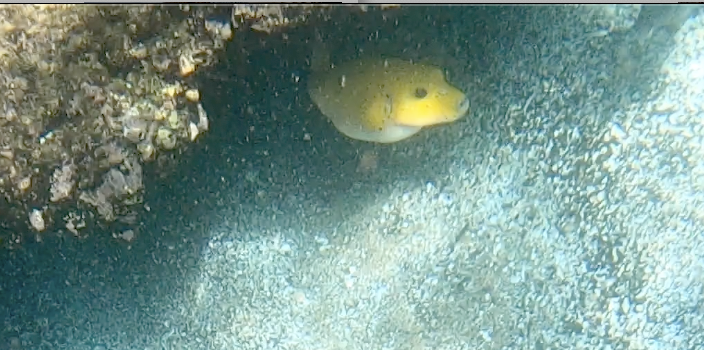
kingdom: Animalia
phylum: Chordata
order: Tetraodontiformes
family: Tetraodontidae
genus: Arothron
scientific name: Arothron meleagris
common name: Guinea-fowl pufferfish
